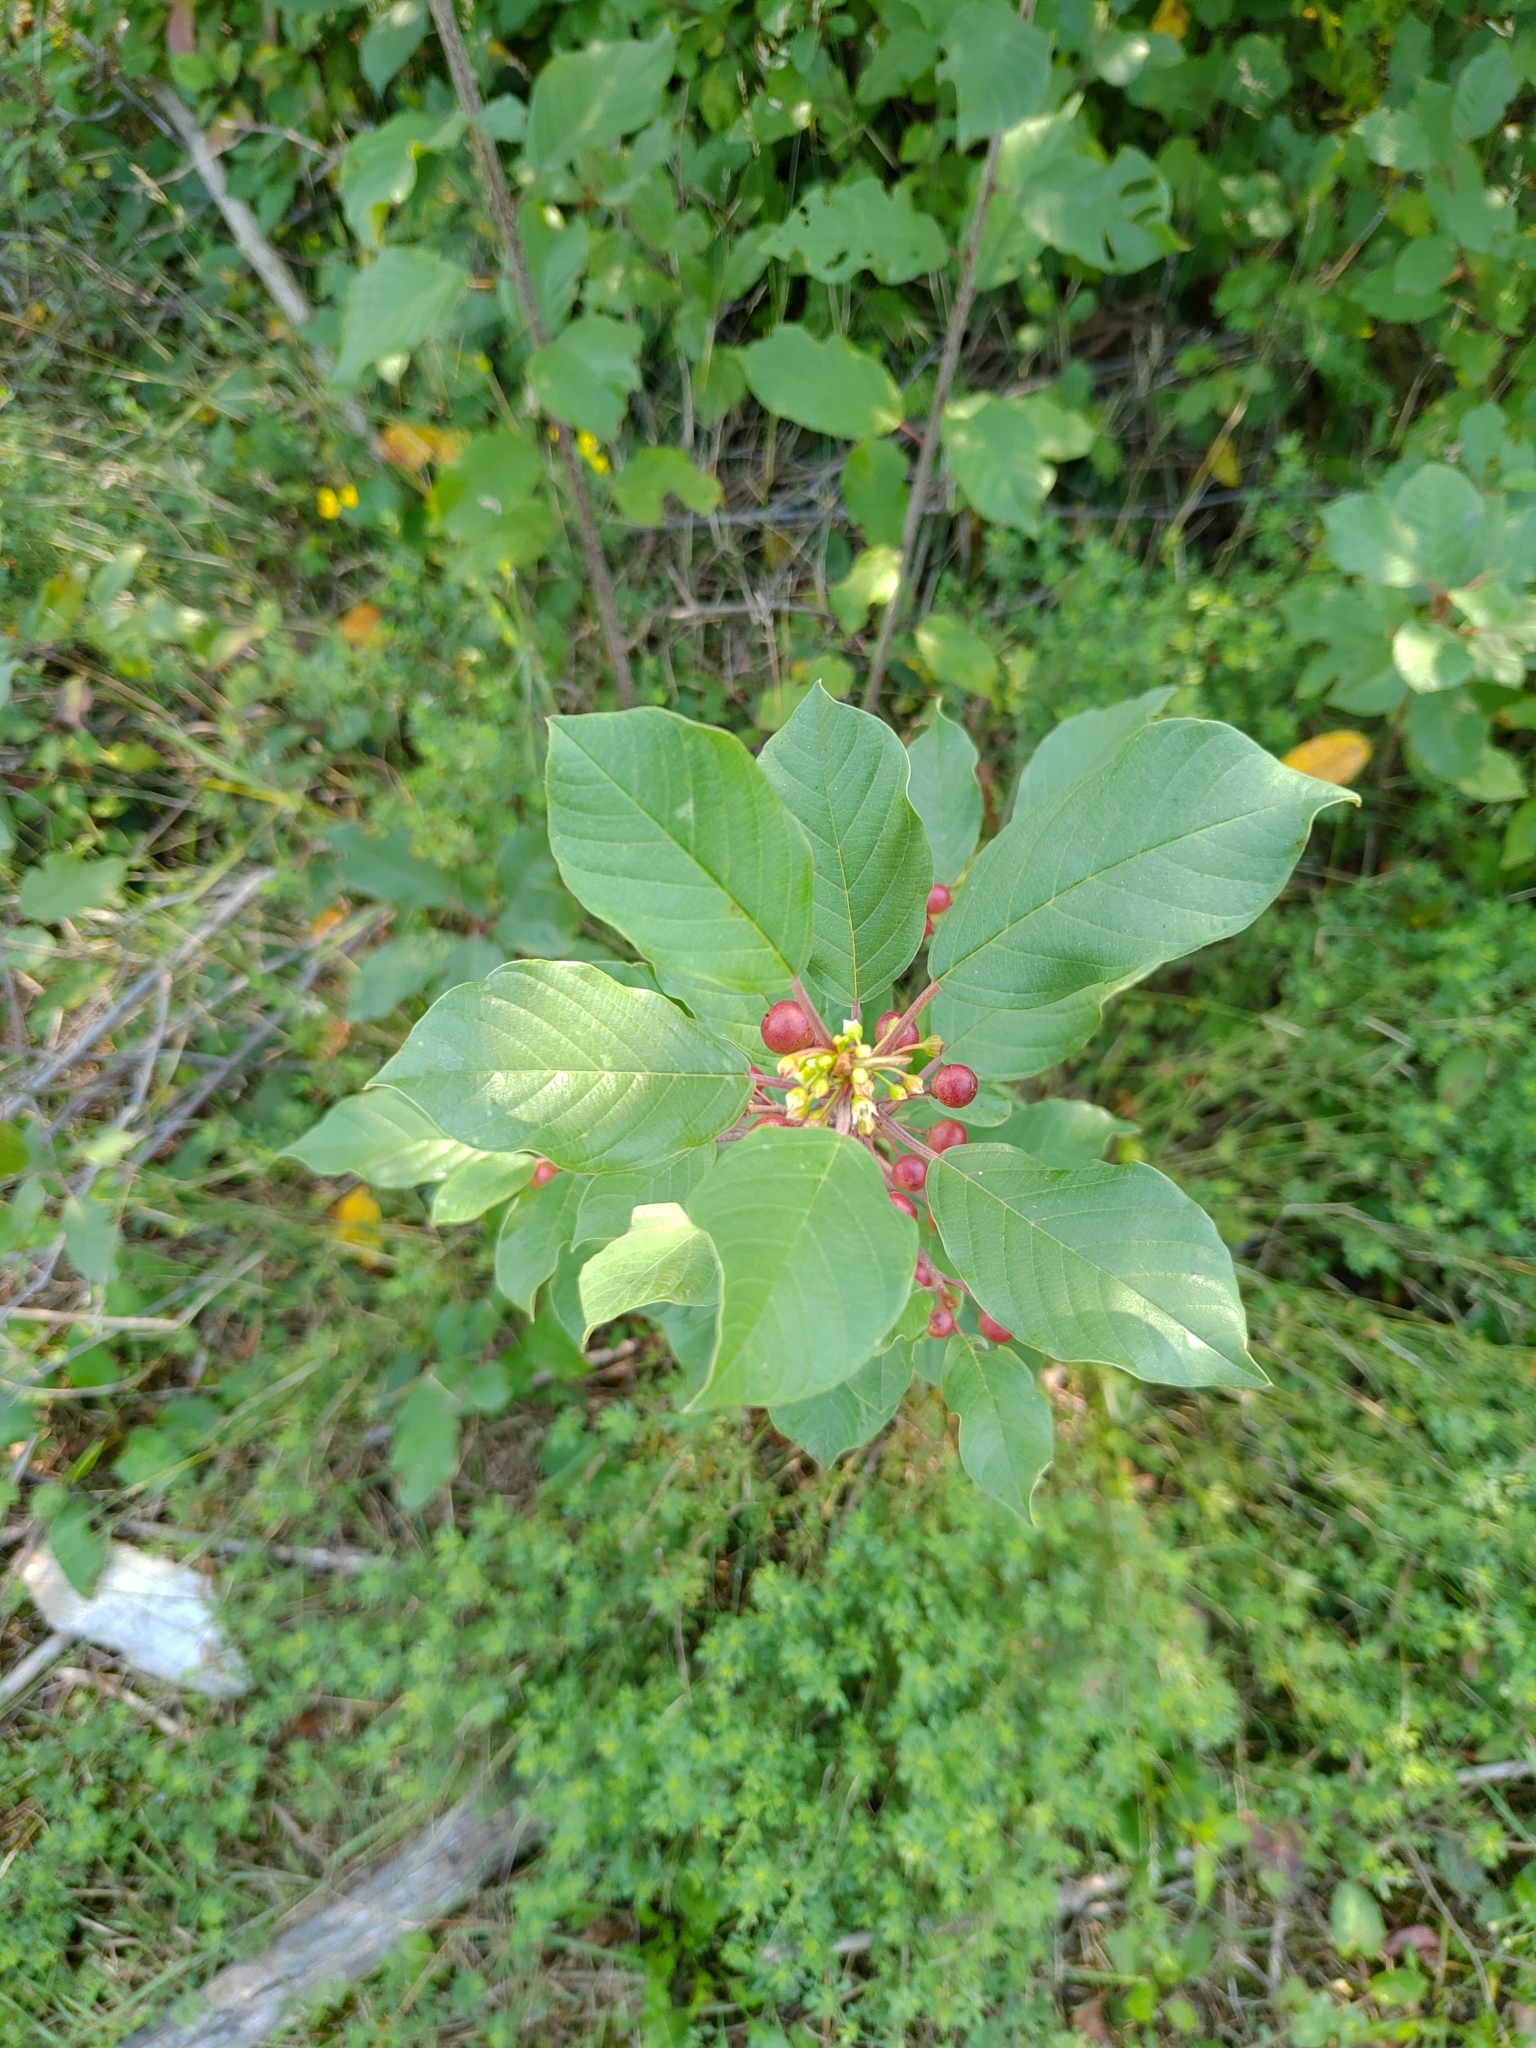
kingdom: Plantae
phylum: Tracheophyta
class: Magnoliopsida
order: Rosales
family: Rhamnaceae
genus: Frangula
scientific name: Frangula alnus
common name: Alder buckthorn
